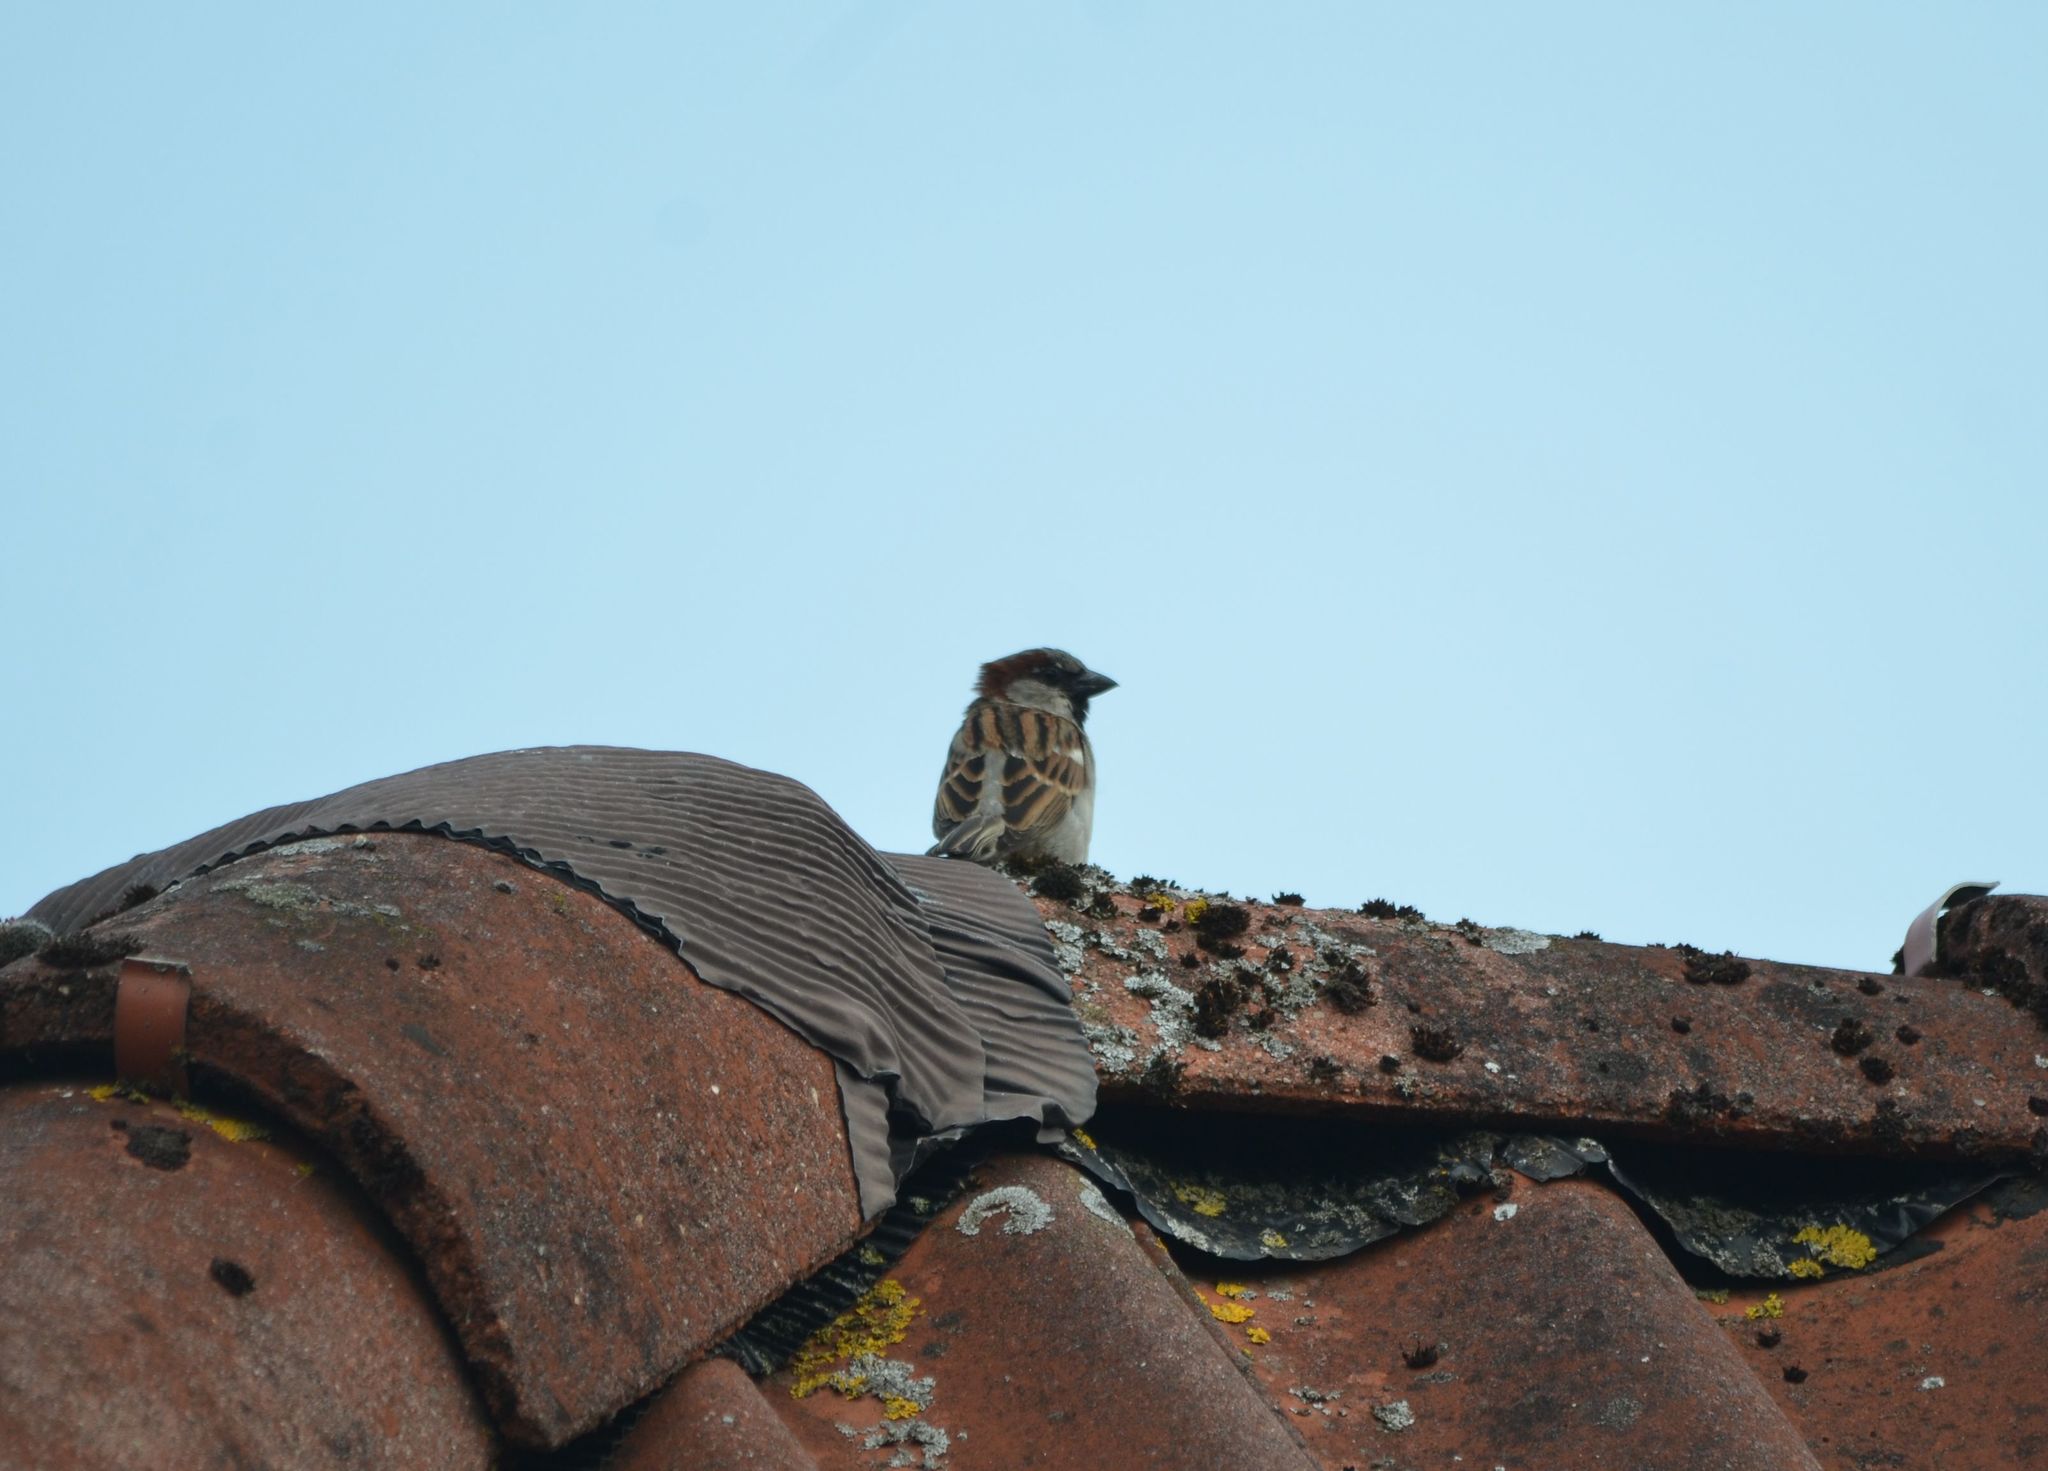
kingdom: Animalia
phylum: Chordata
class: Aves
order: Passeriformes
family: Passeridae
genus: Passer
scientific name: Passer domesticus
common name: House sparrow
